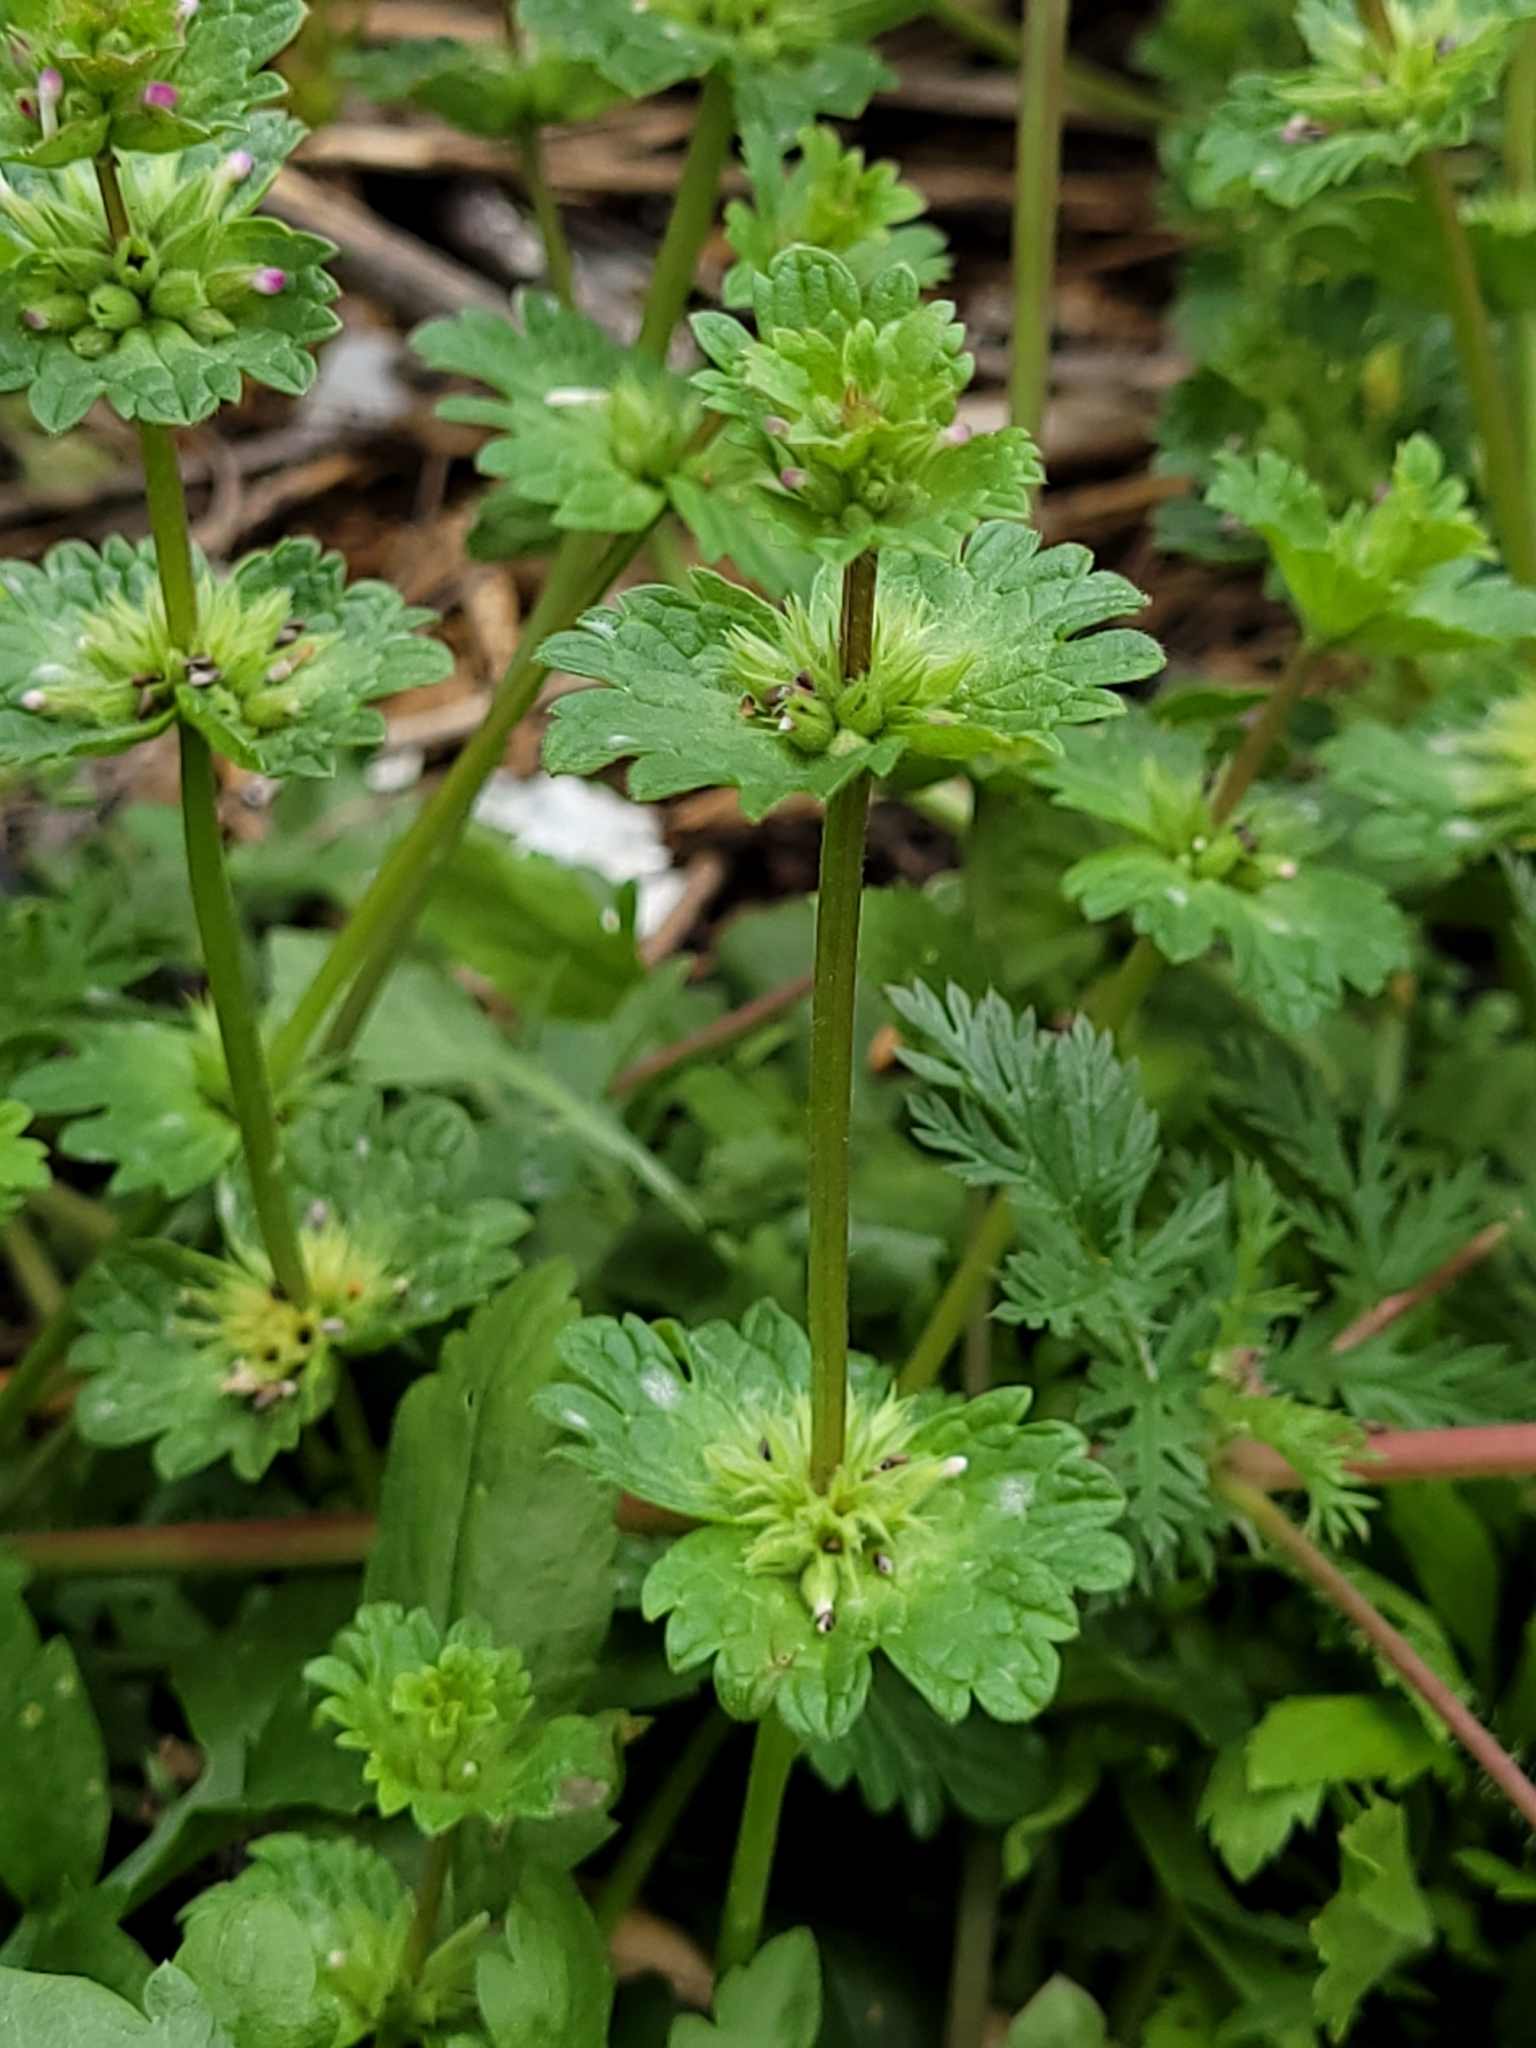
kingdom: Plantae
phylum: Tracheophyta
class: Magnoliopsida
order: Lamiales
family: Lamiaceae
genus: Lamium
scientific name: Lamium amplexicaule
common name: Henbit dead-nettle
